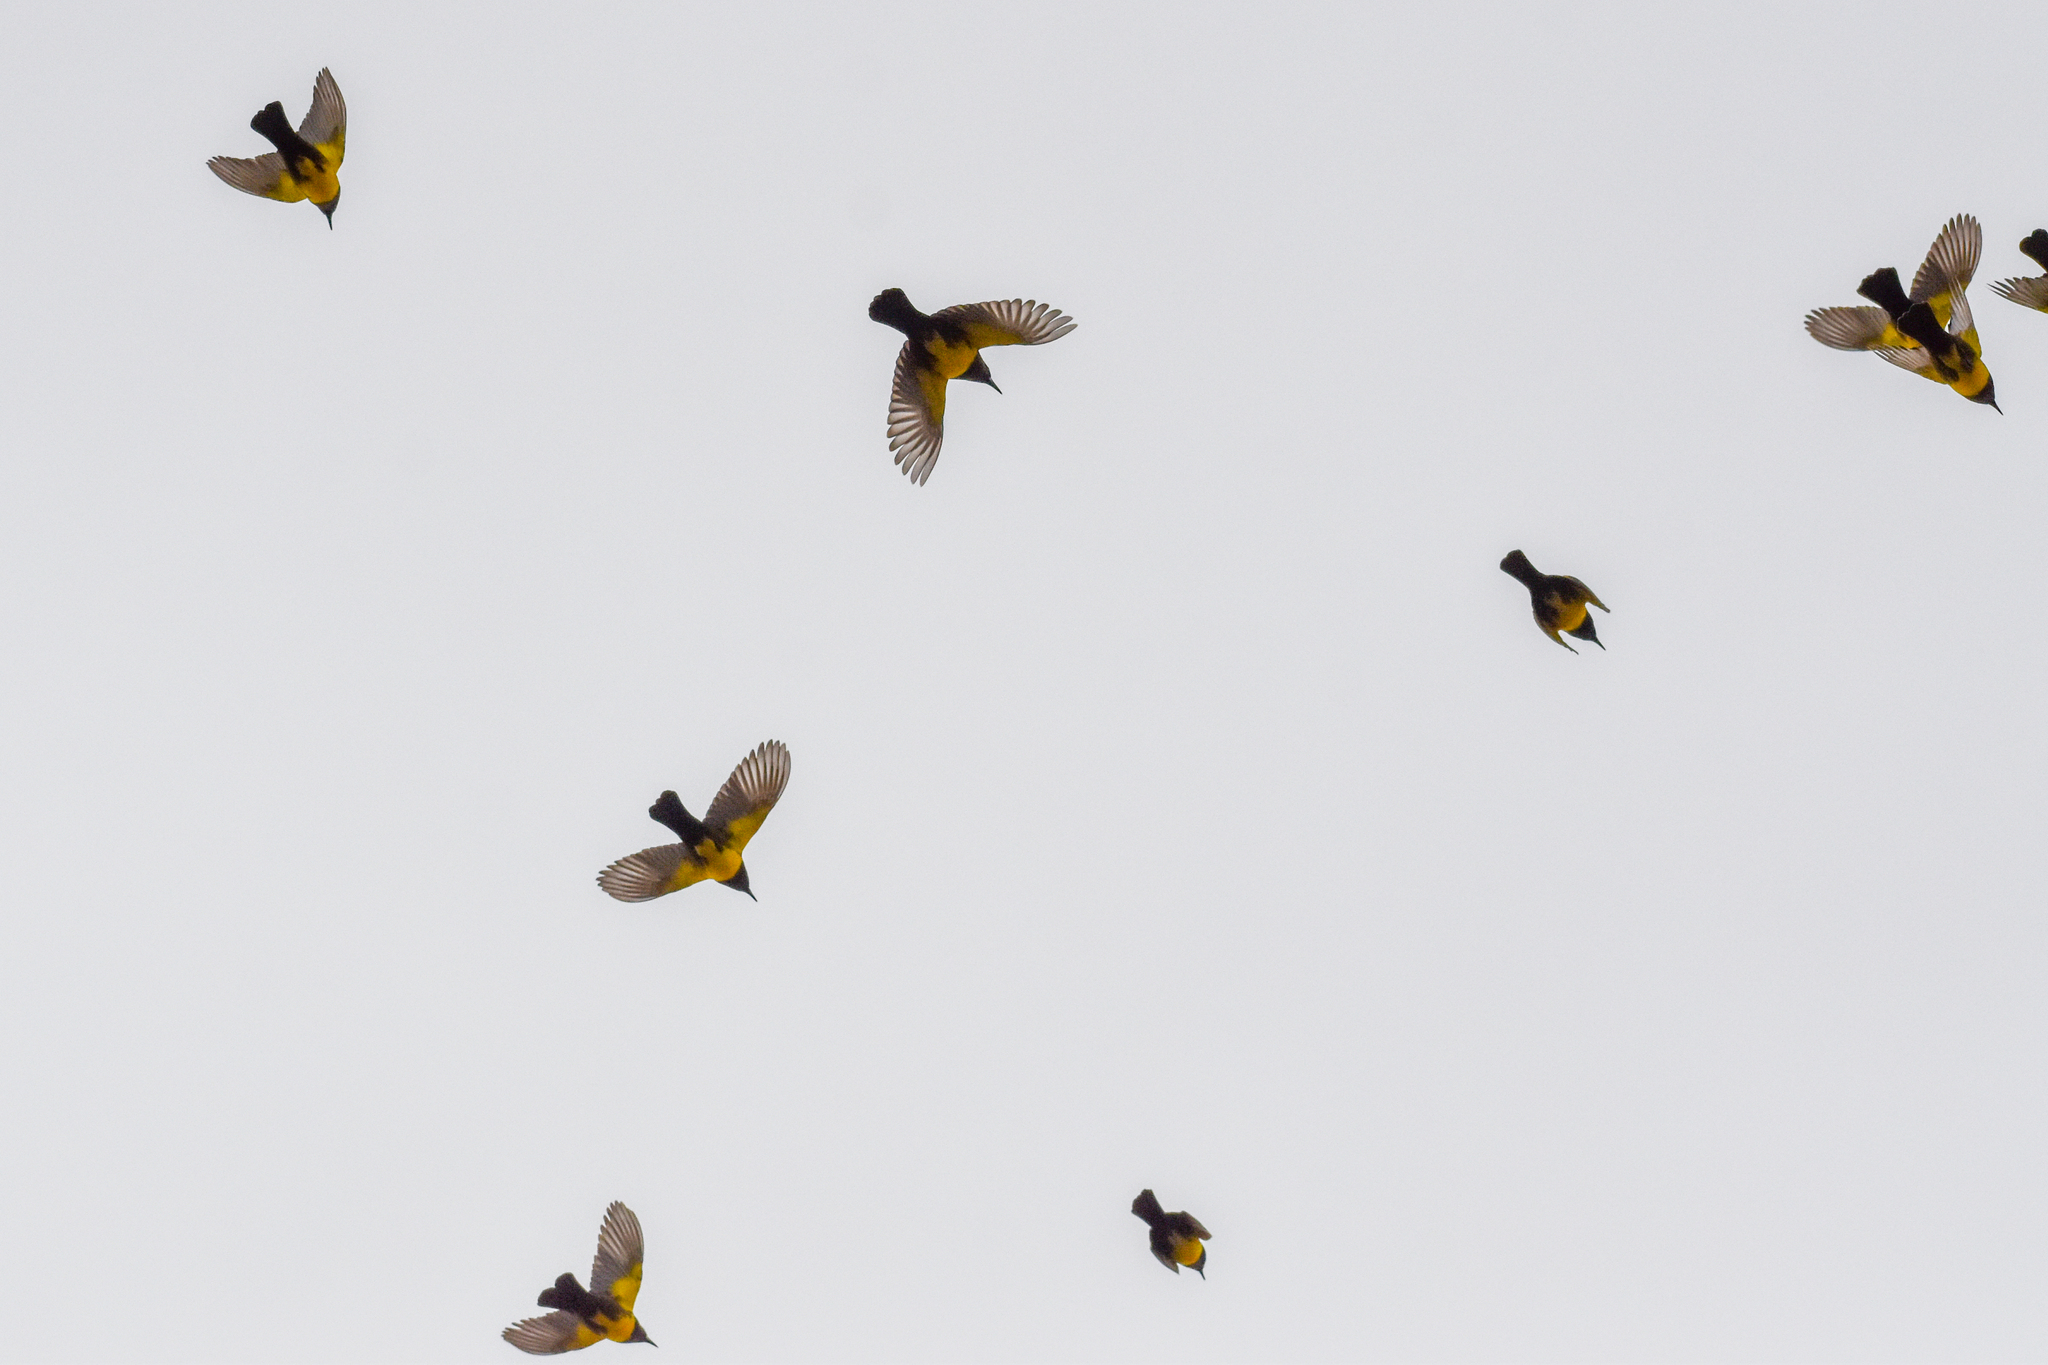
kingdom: Animalia
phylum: Chordata
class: Aves
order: Passeriformes
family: Icteridae
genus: Pseudoleistes
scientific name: Pseudoleistes virescens
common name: Brown-and-yellow marshbird
